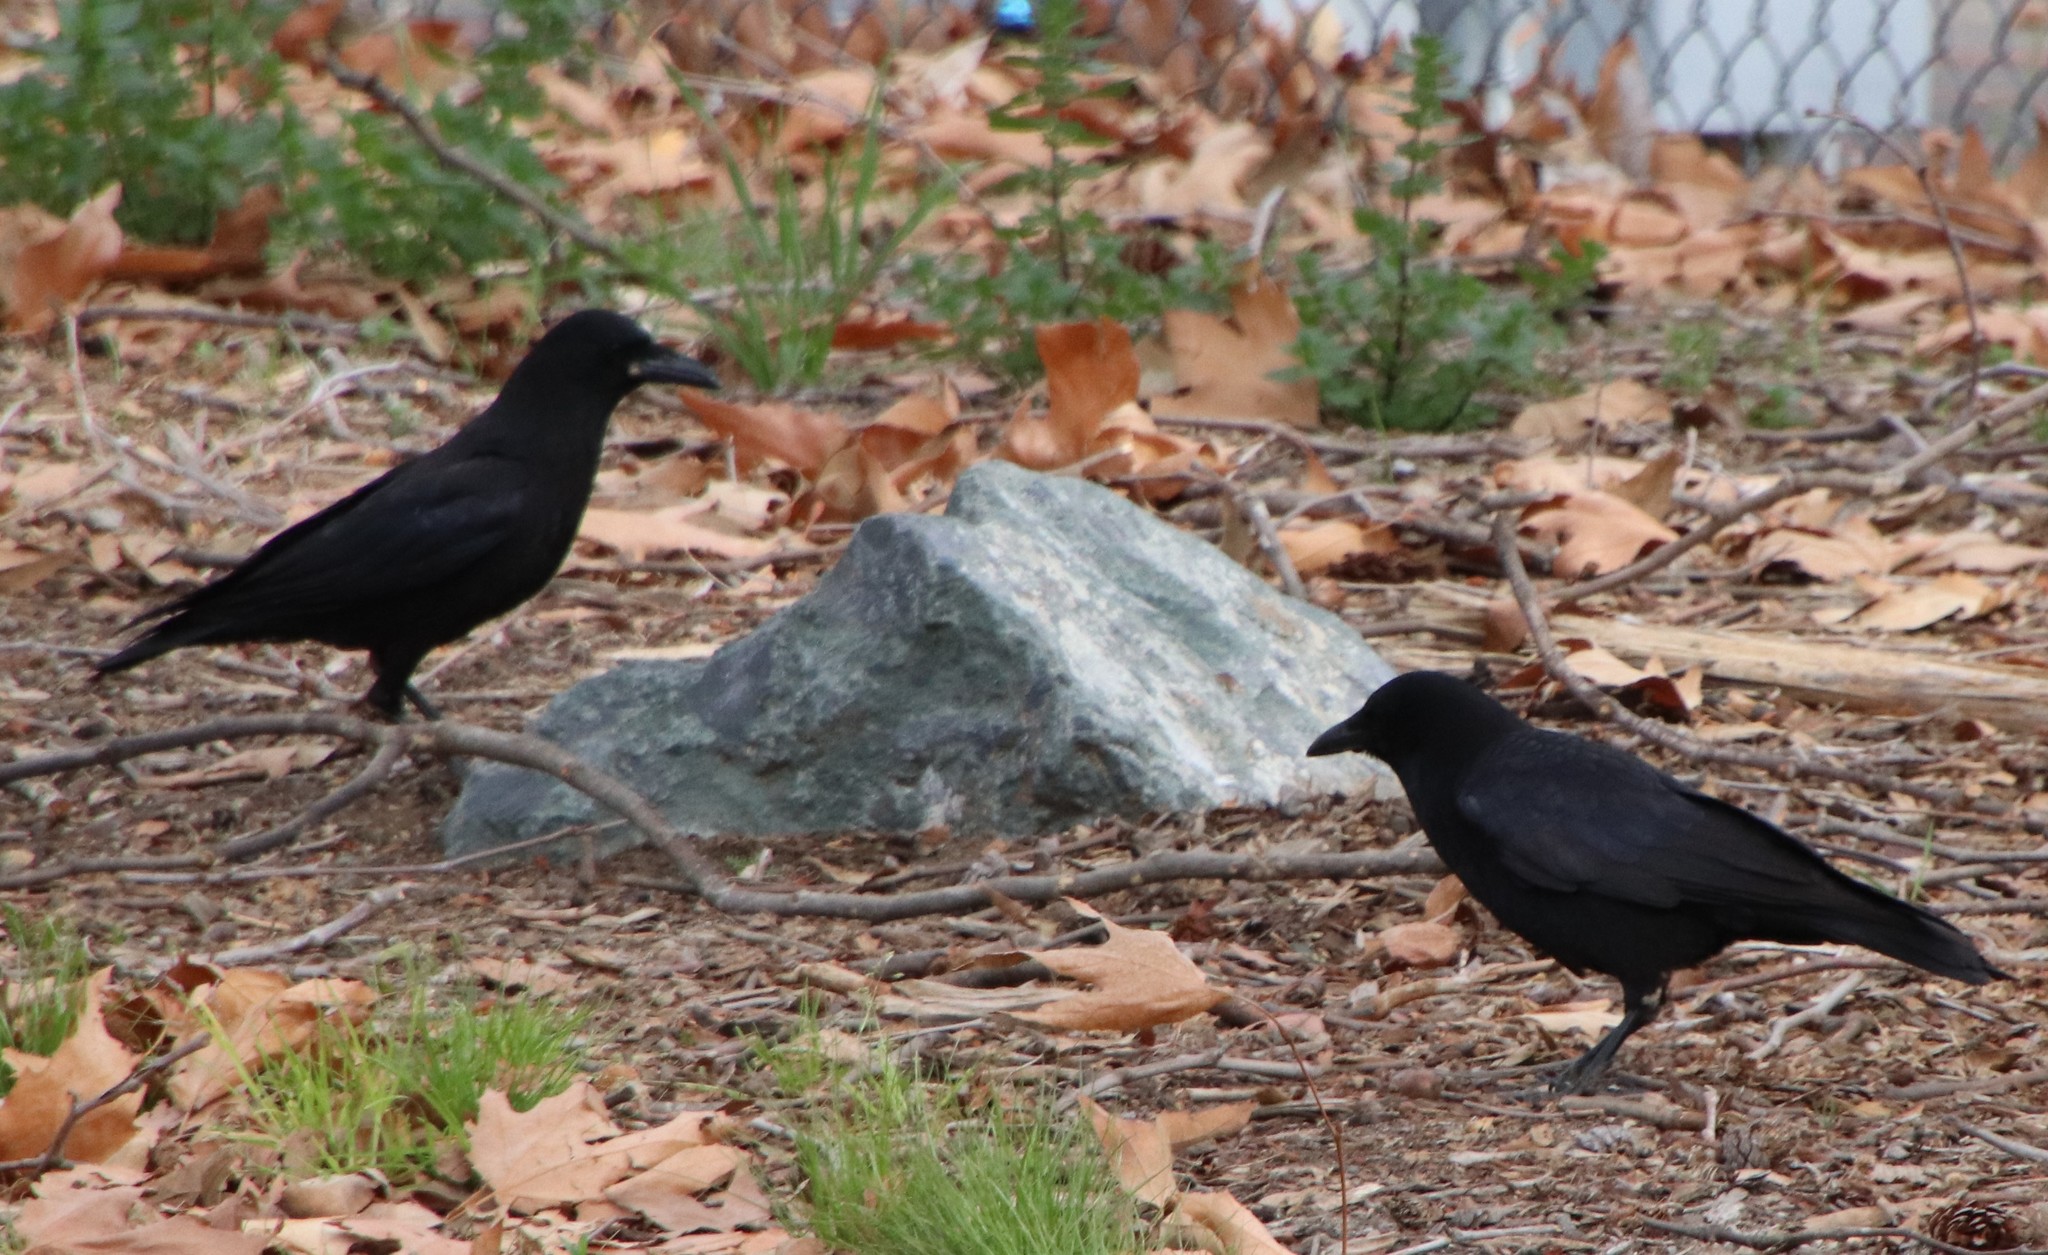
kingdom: Animalia
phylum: Chordata
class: Aves
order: Passeriformes
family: Corvidae
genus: Corvus
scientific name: Corvus brachyrhynchos
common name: American crow
